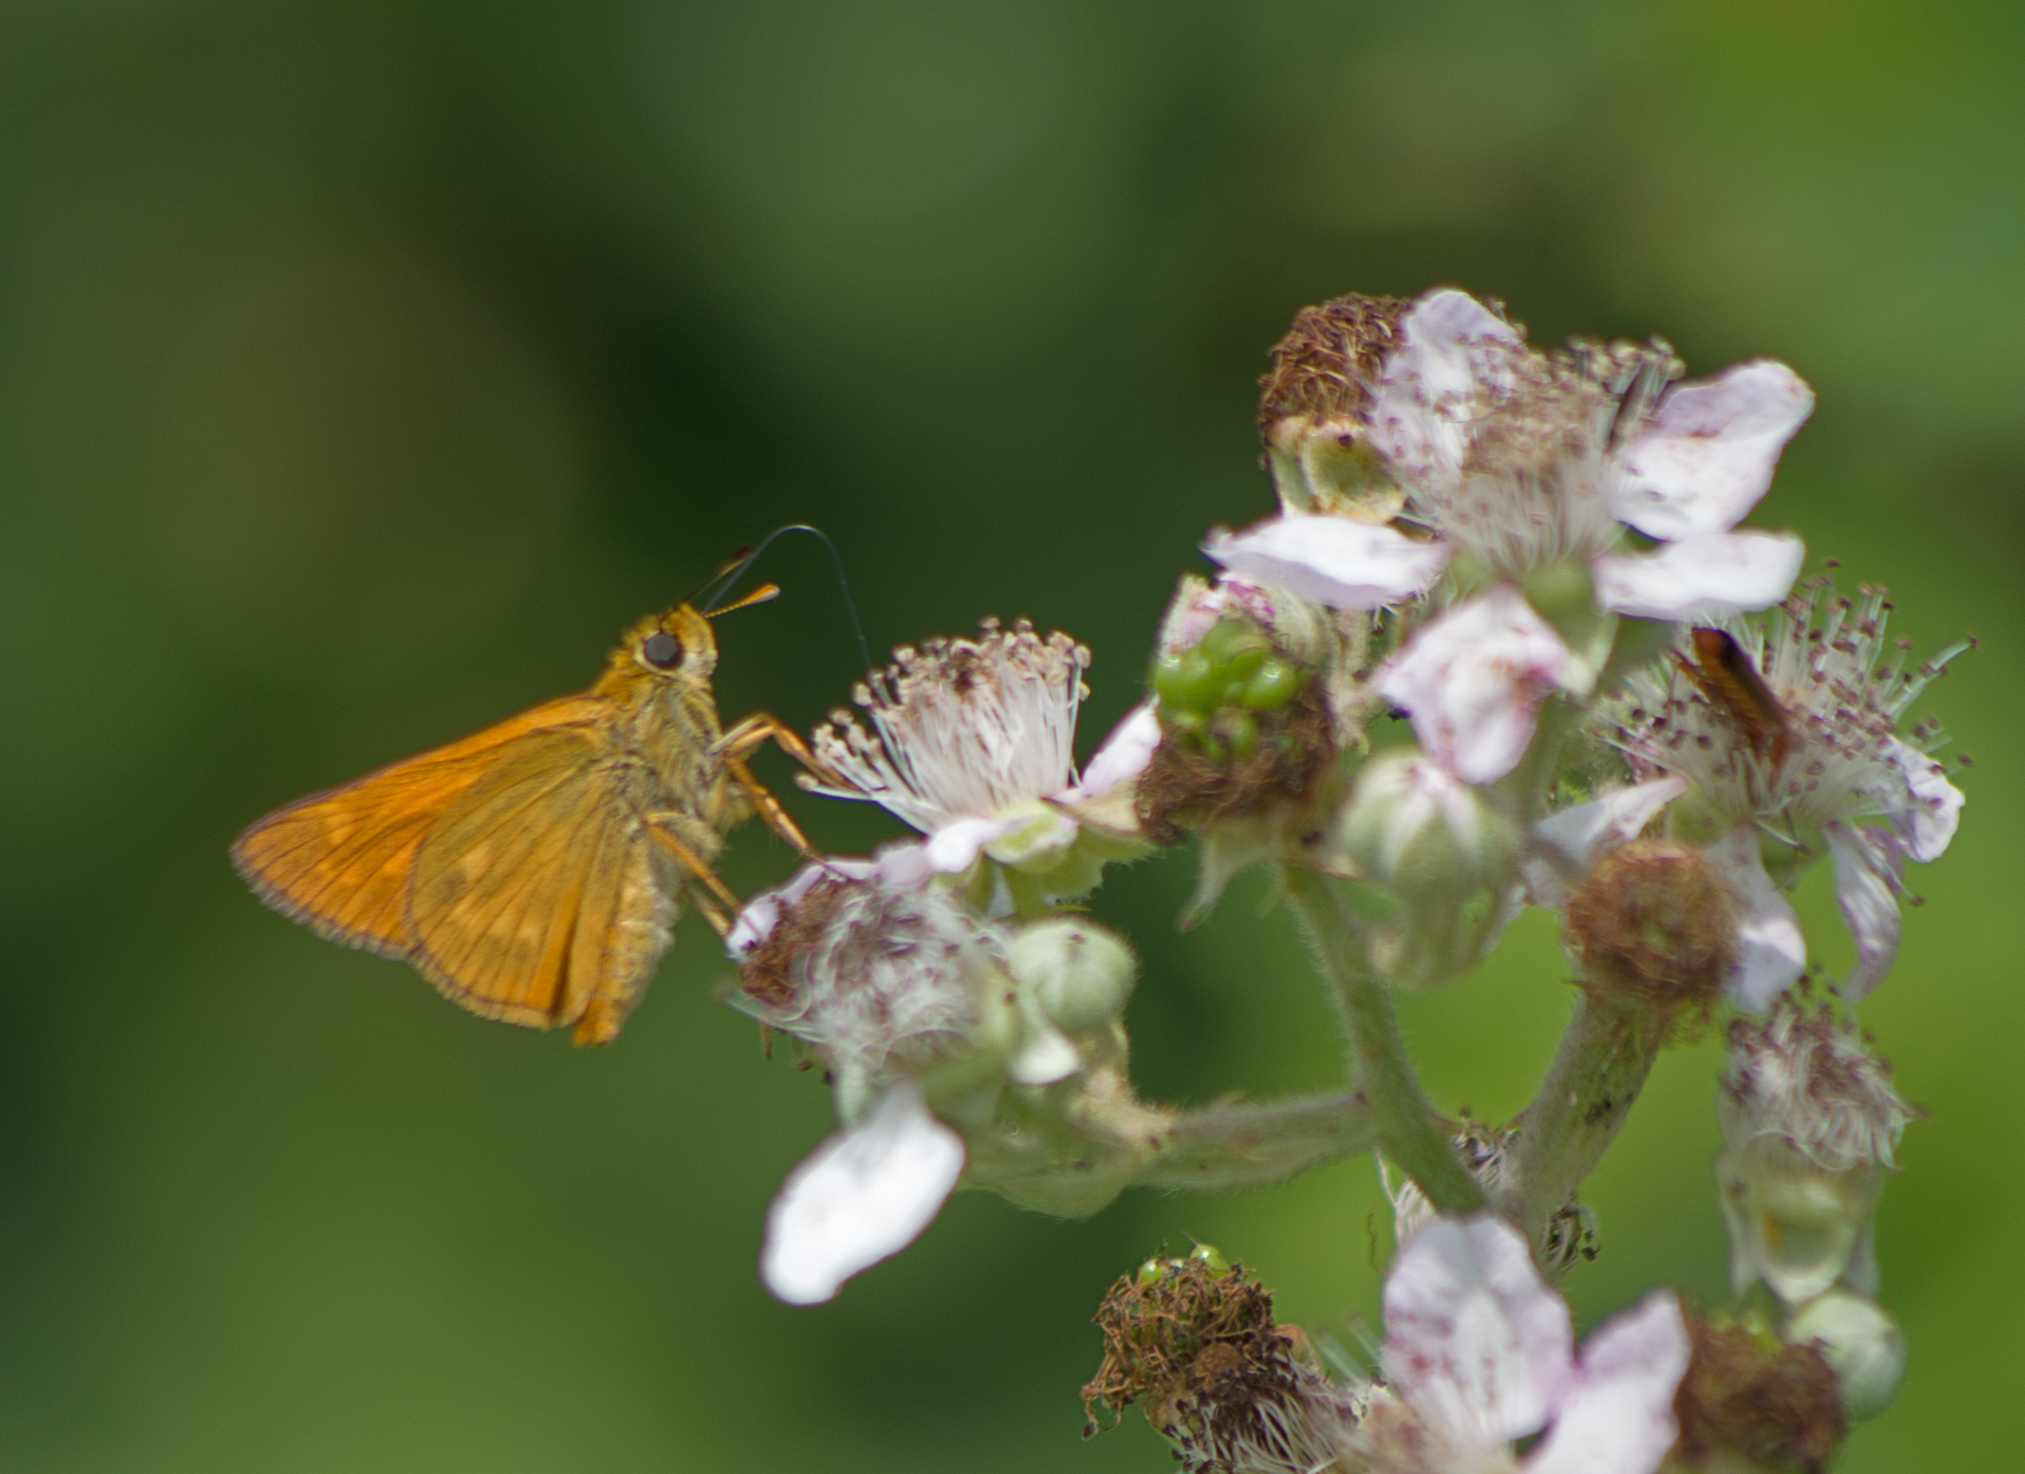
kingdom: Animalia
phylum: Arthropoda
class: Insecta
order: Lepidoptera
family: Hesperiidae
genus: Ochlodes
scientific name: Ochlodes venata
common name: Large skipper
